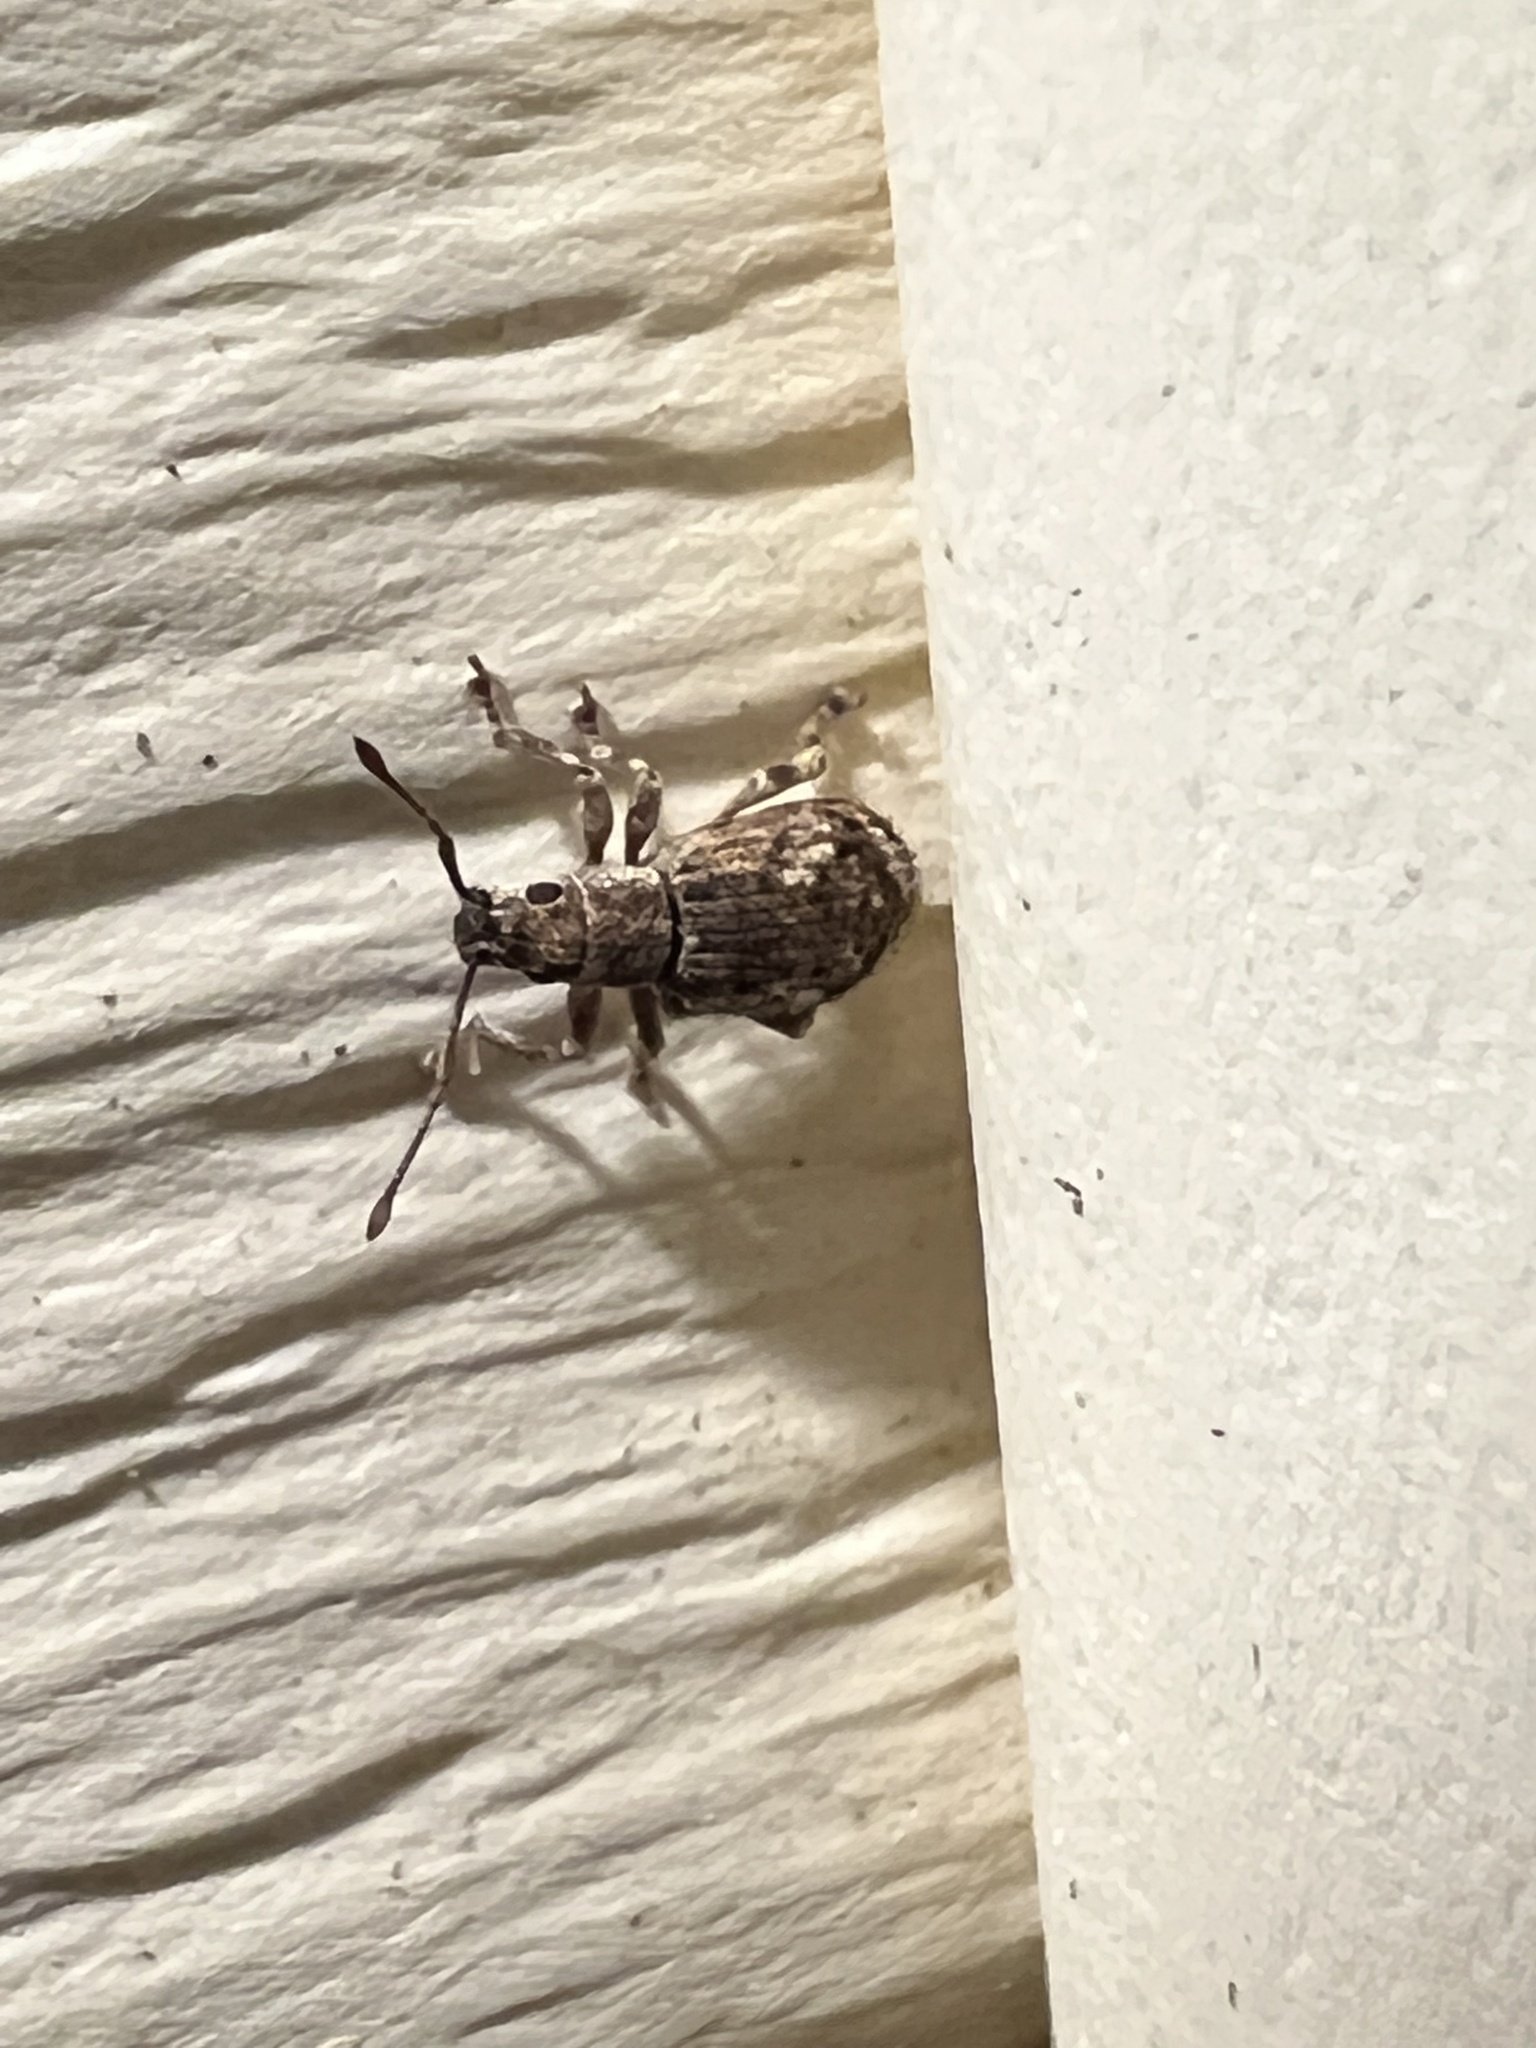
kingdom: Animalia
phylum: Arthropoda
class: Insecta
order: Coleoptera
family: Curculionidae
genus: Pseudoedophrys
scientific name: Pseudoedophrys hilleri
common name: Weevil
